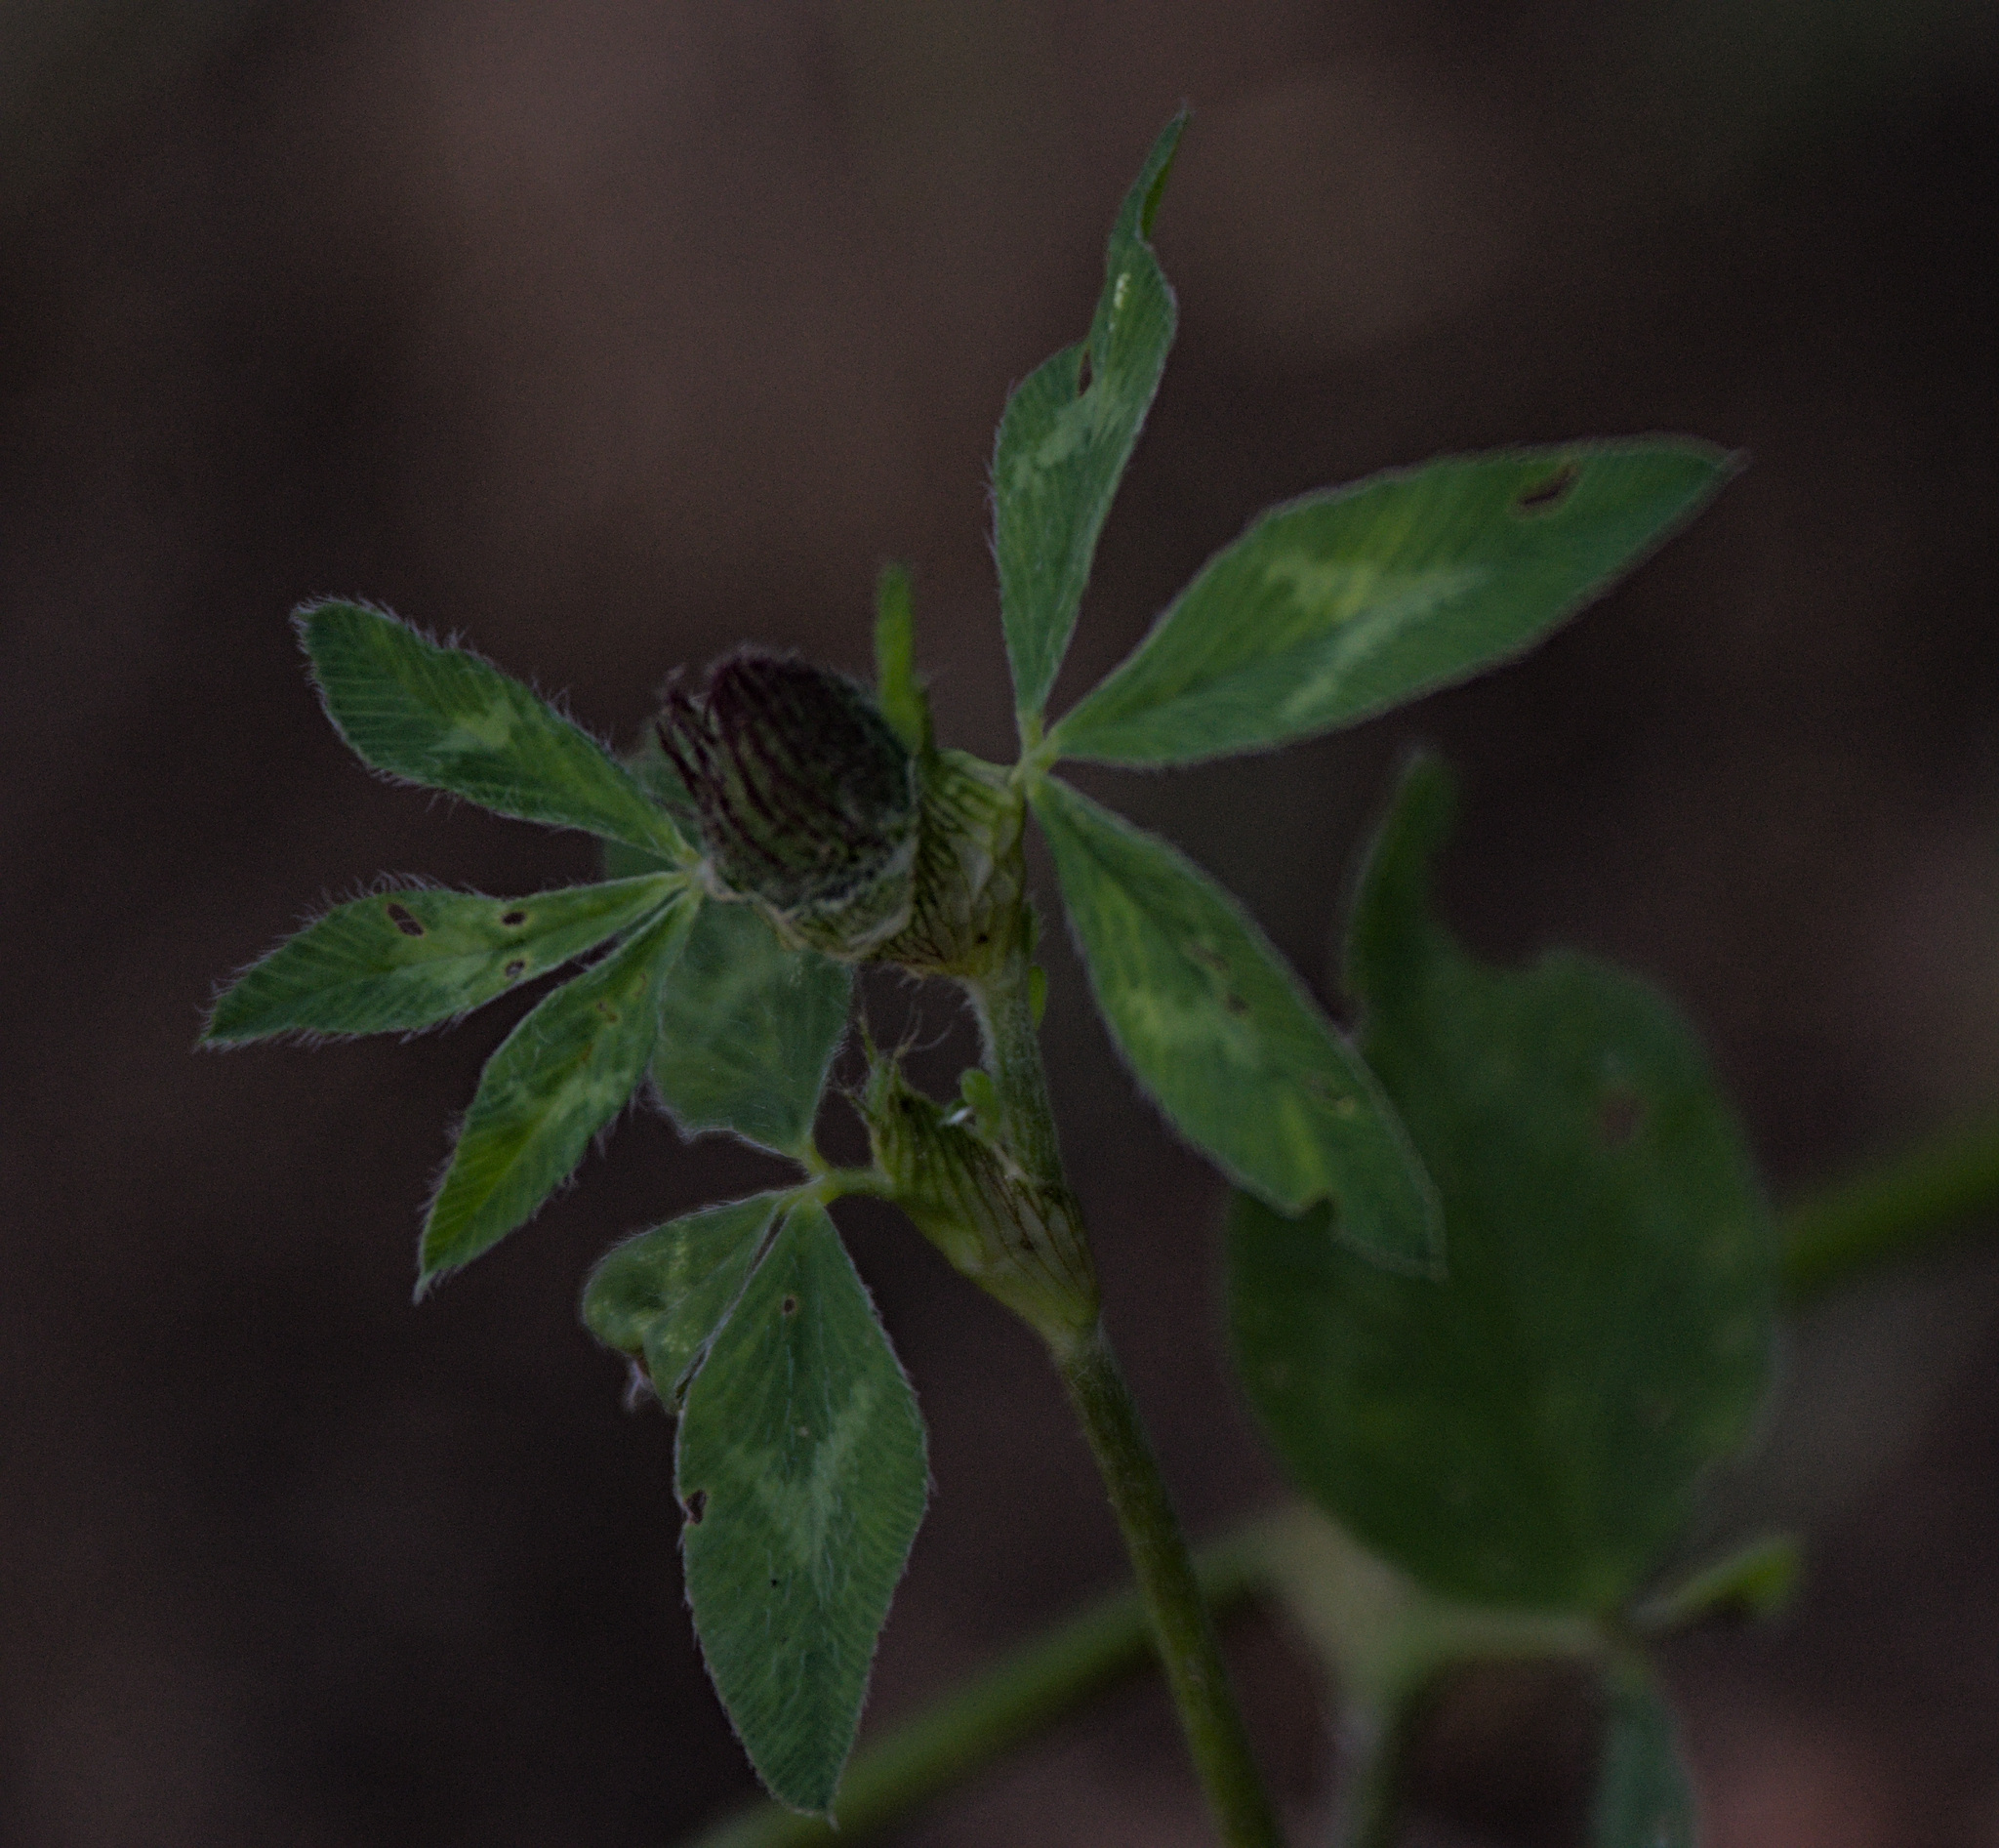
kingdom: Plantae
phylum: Tracheophyta
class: Magnoliopsida
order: Fabales
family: Fabaceae
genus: Trifolium
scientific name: Trifolium pratense
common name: Red clover
